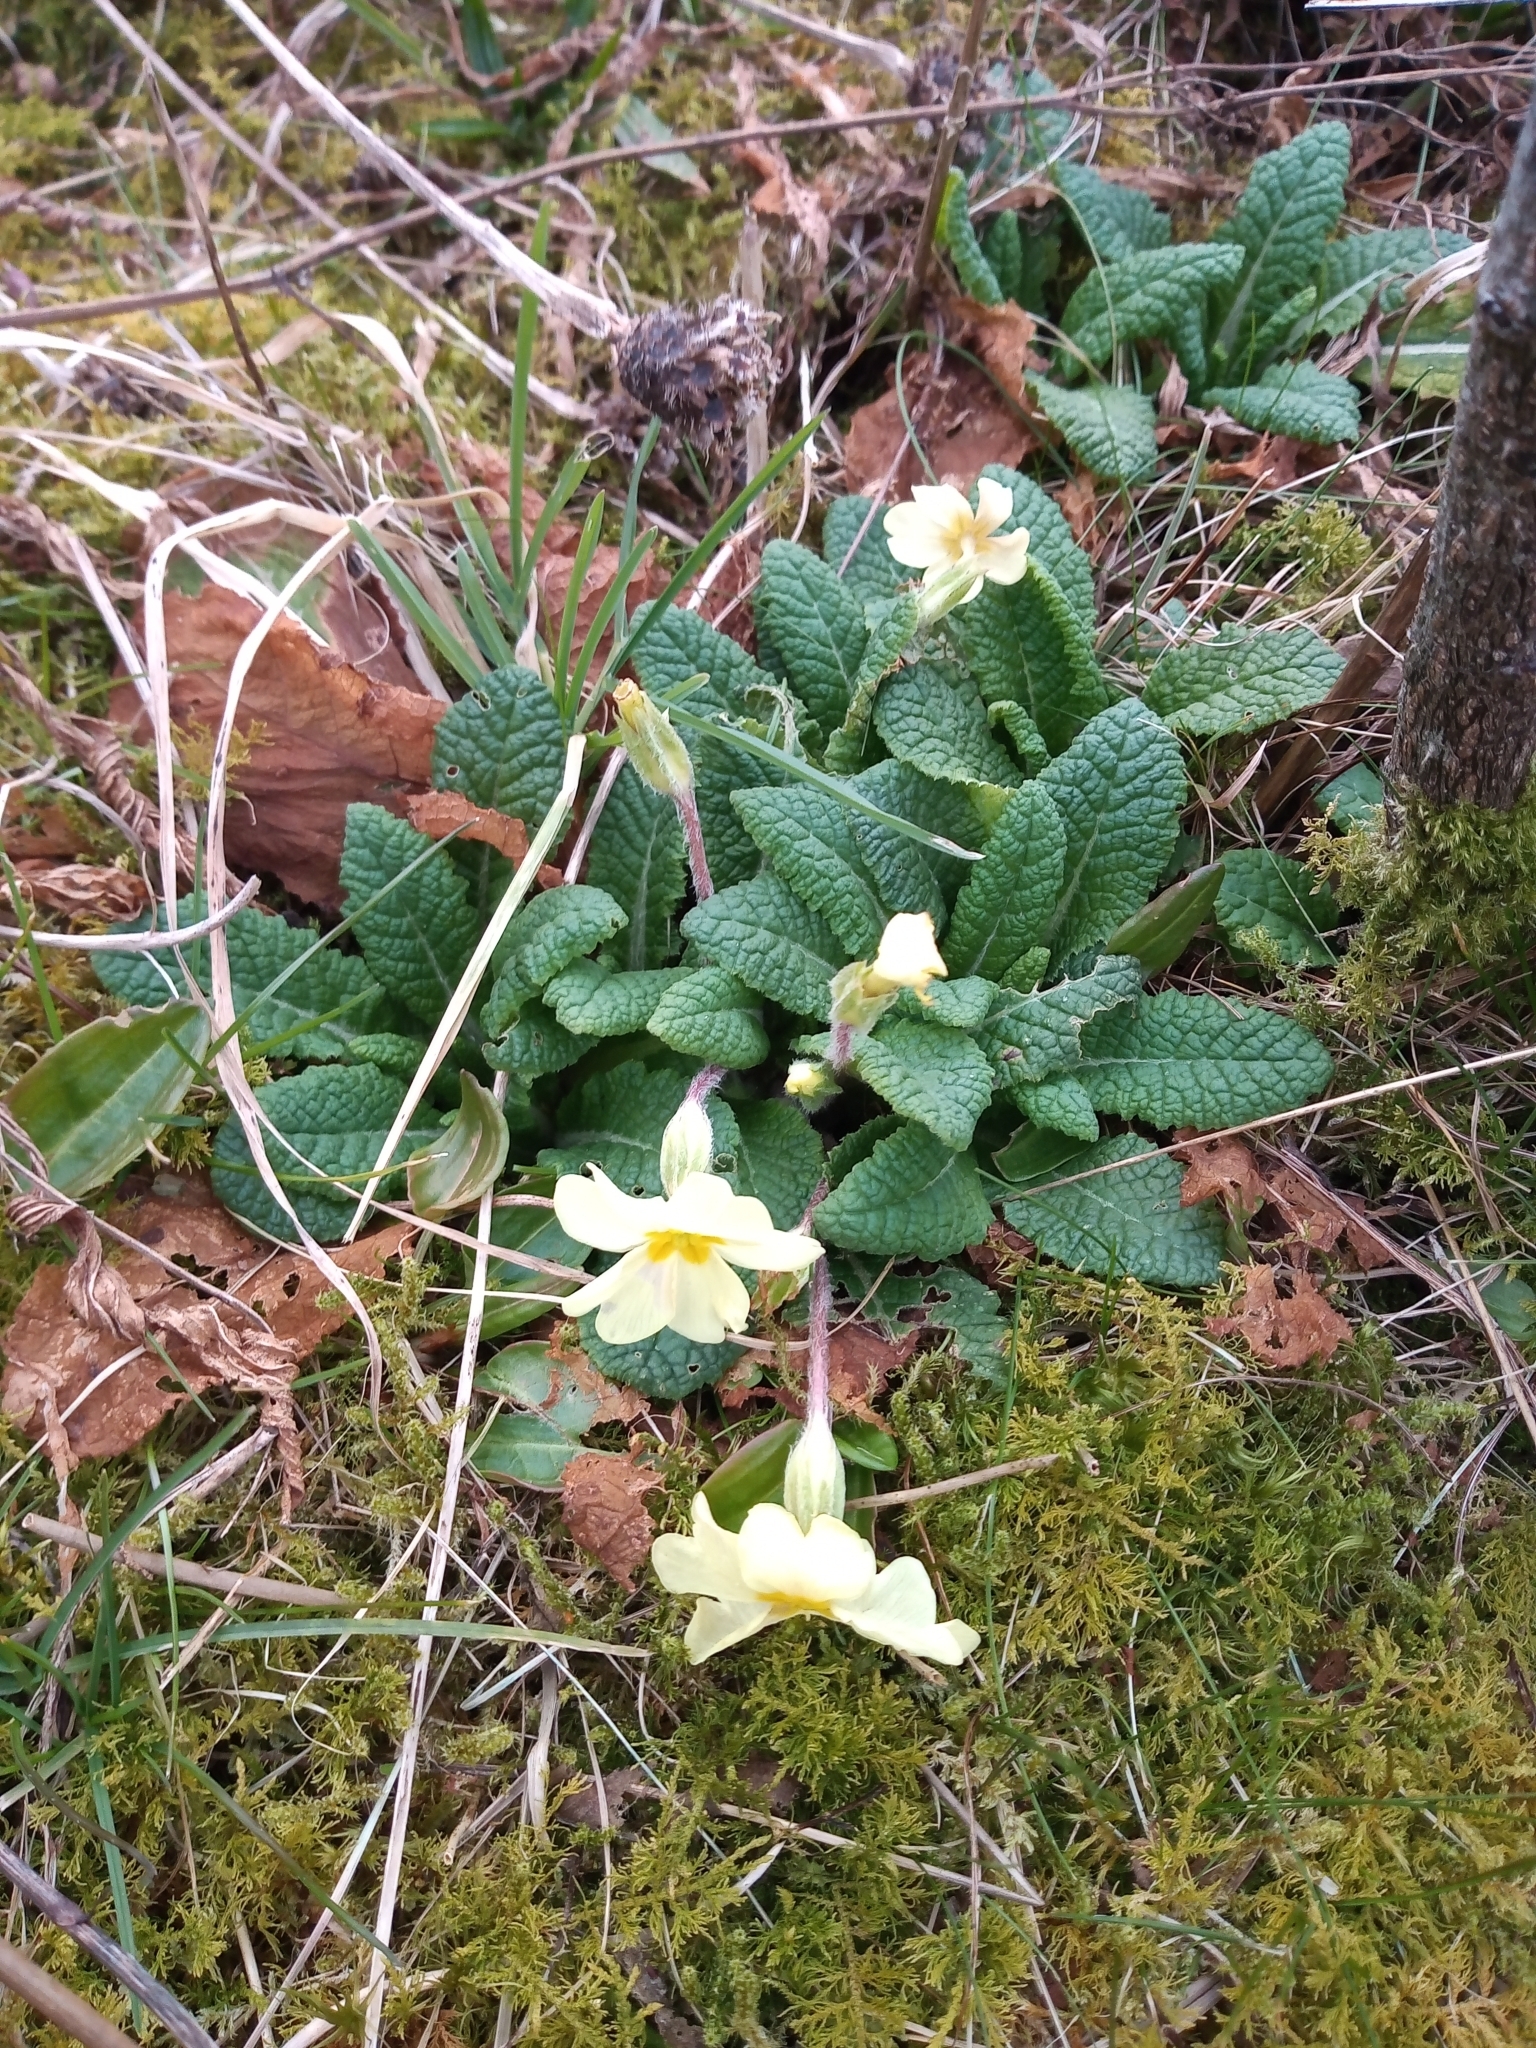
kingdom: Plantae
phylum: Tracheophyta
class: Magnoliopsida
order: Ericales
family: Primulaceae
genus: Primula
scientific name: Primula vulgaris
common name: Primrose
